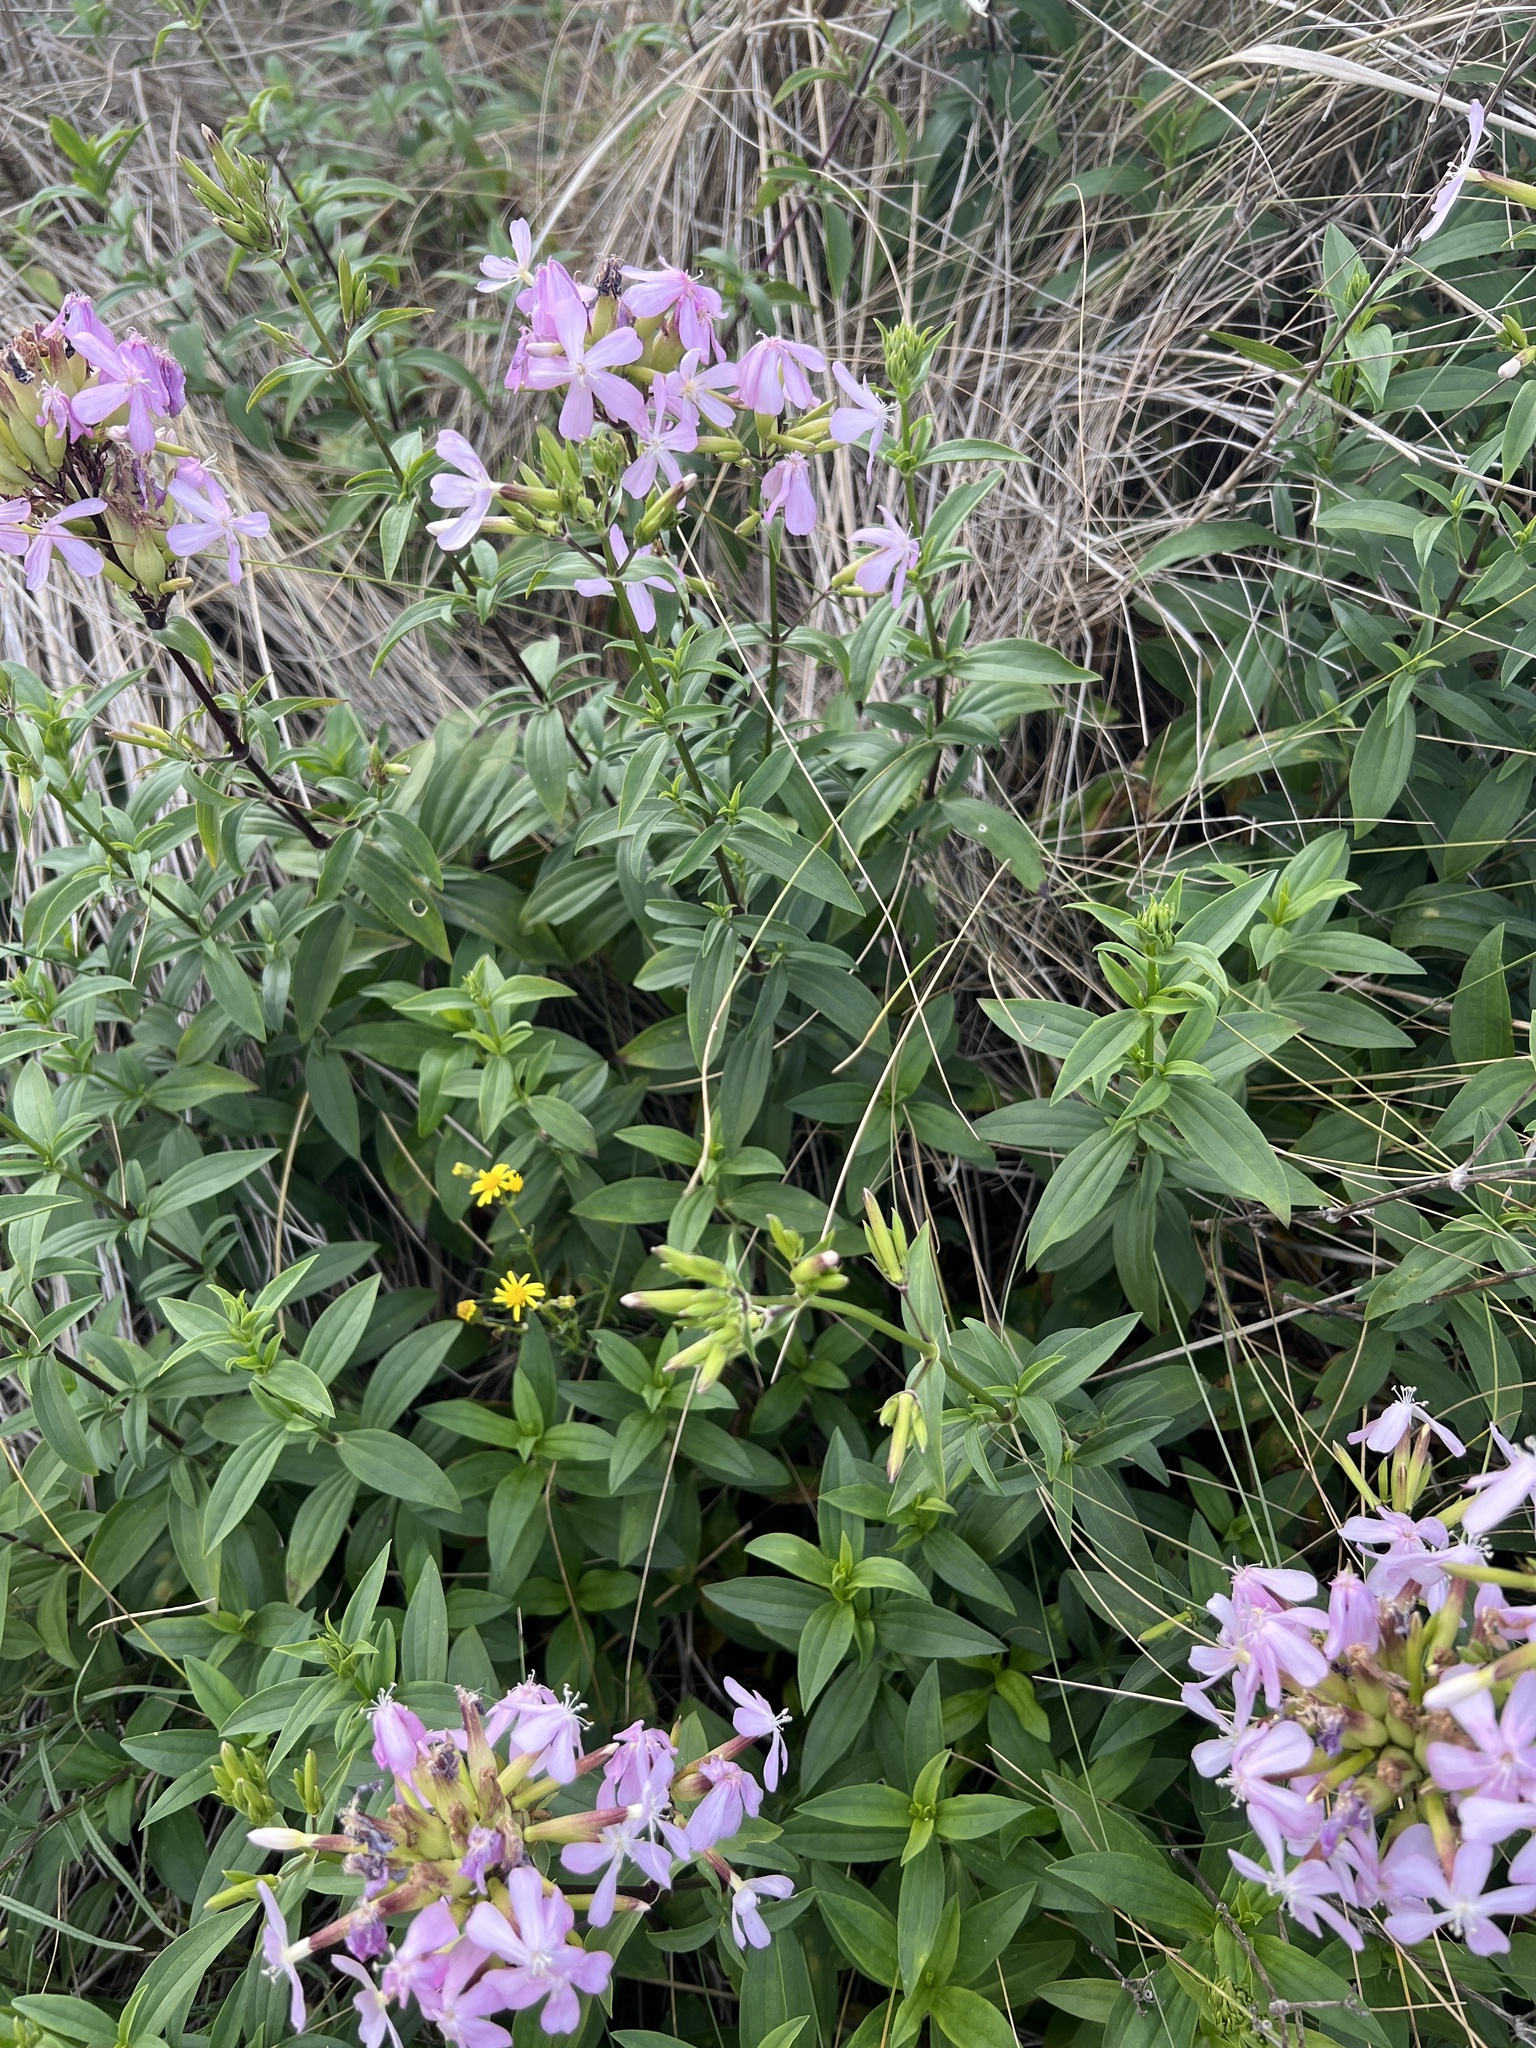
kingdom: Plantae
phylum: Tracheophyta
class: Magnoliopsida
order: Caryophyllales
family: Caryophyllaceae
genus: Saponaria
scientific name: Saponaria officinalis
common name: Soapwort
